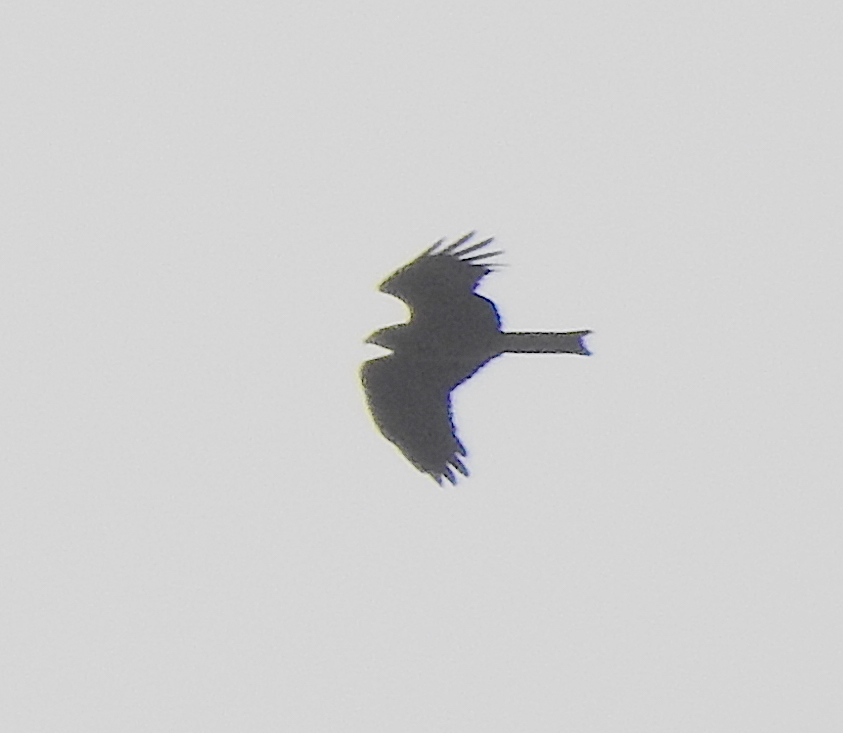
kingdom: Animalia
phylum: Chordata
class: Aves
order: Accipitriformes
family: Accipitridae
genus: Milvus
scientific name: Milvus migrans
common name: Black kite
